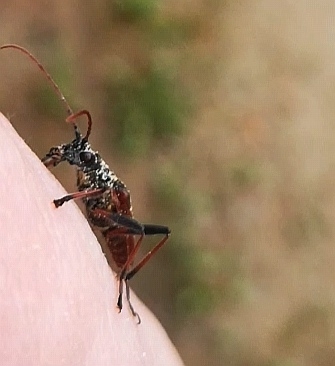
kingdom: Animalia
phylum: Arthropoda
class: Insecta
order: Coleoptera
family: Cerambycidae
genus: Rhagium
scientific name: Rhagium bifasciatum
